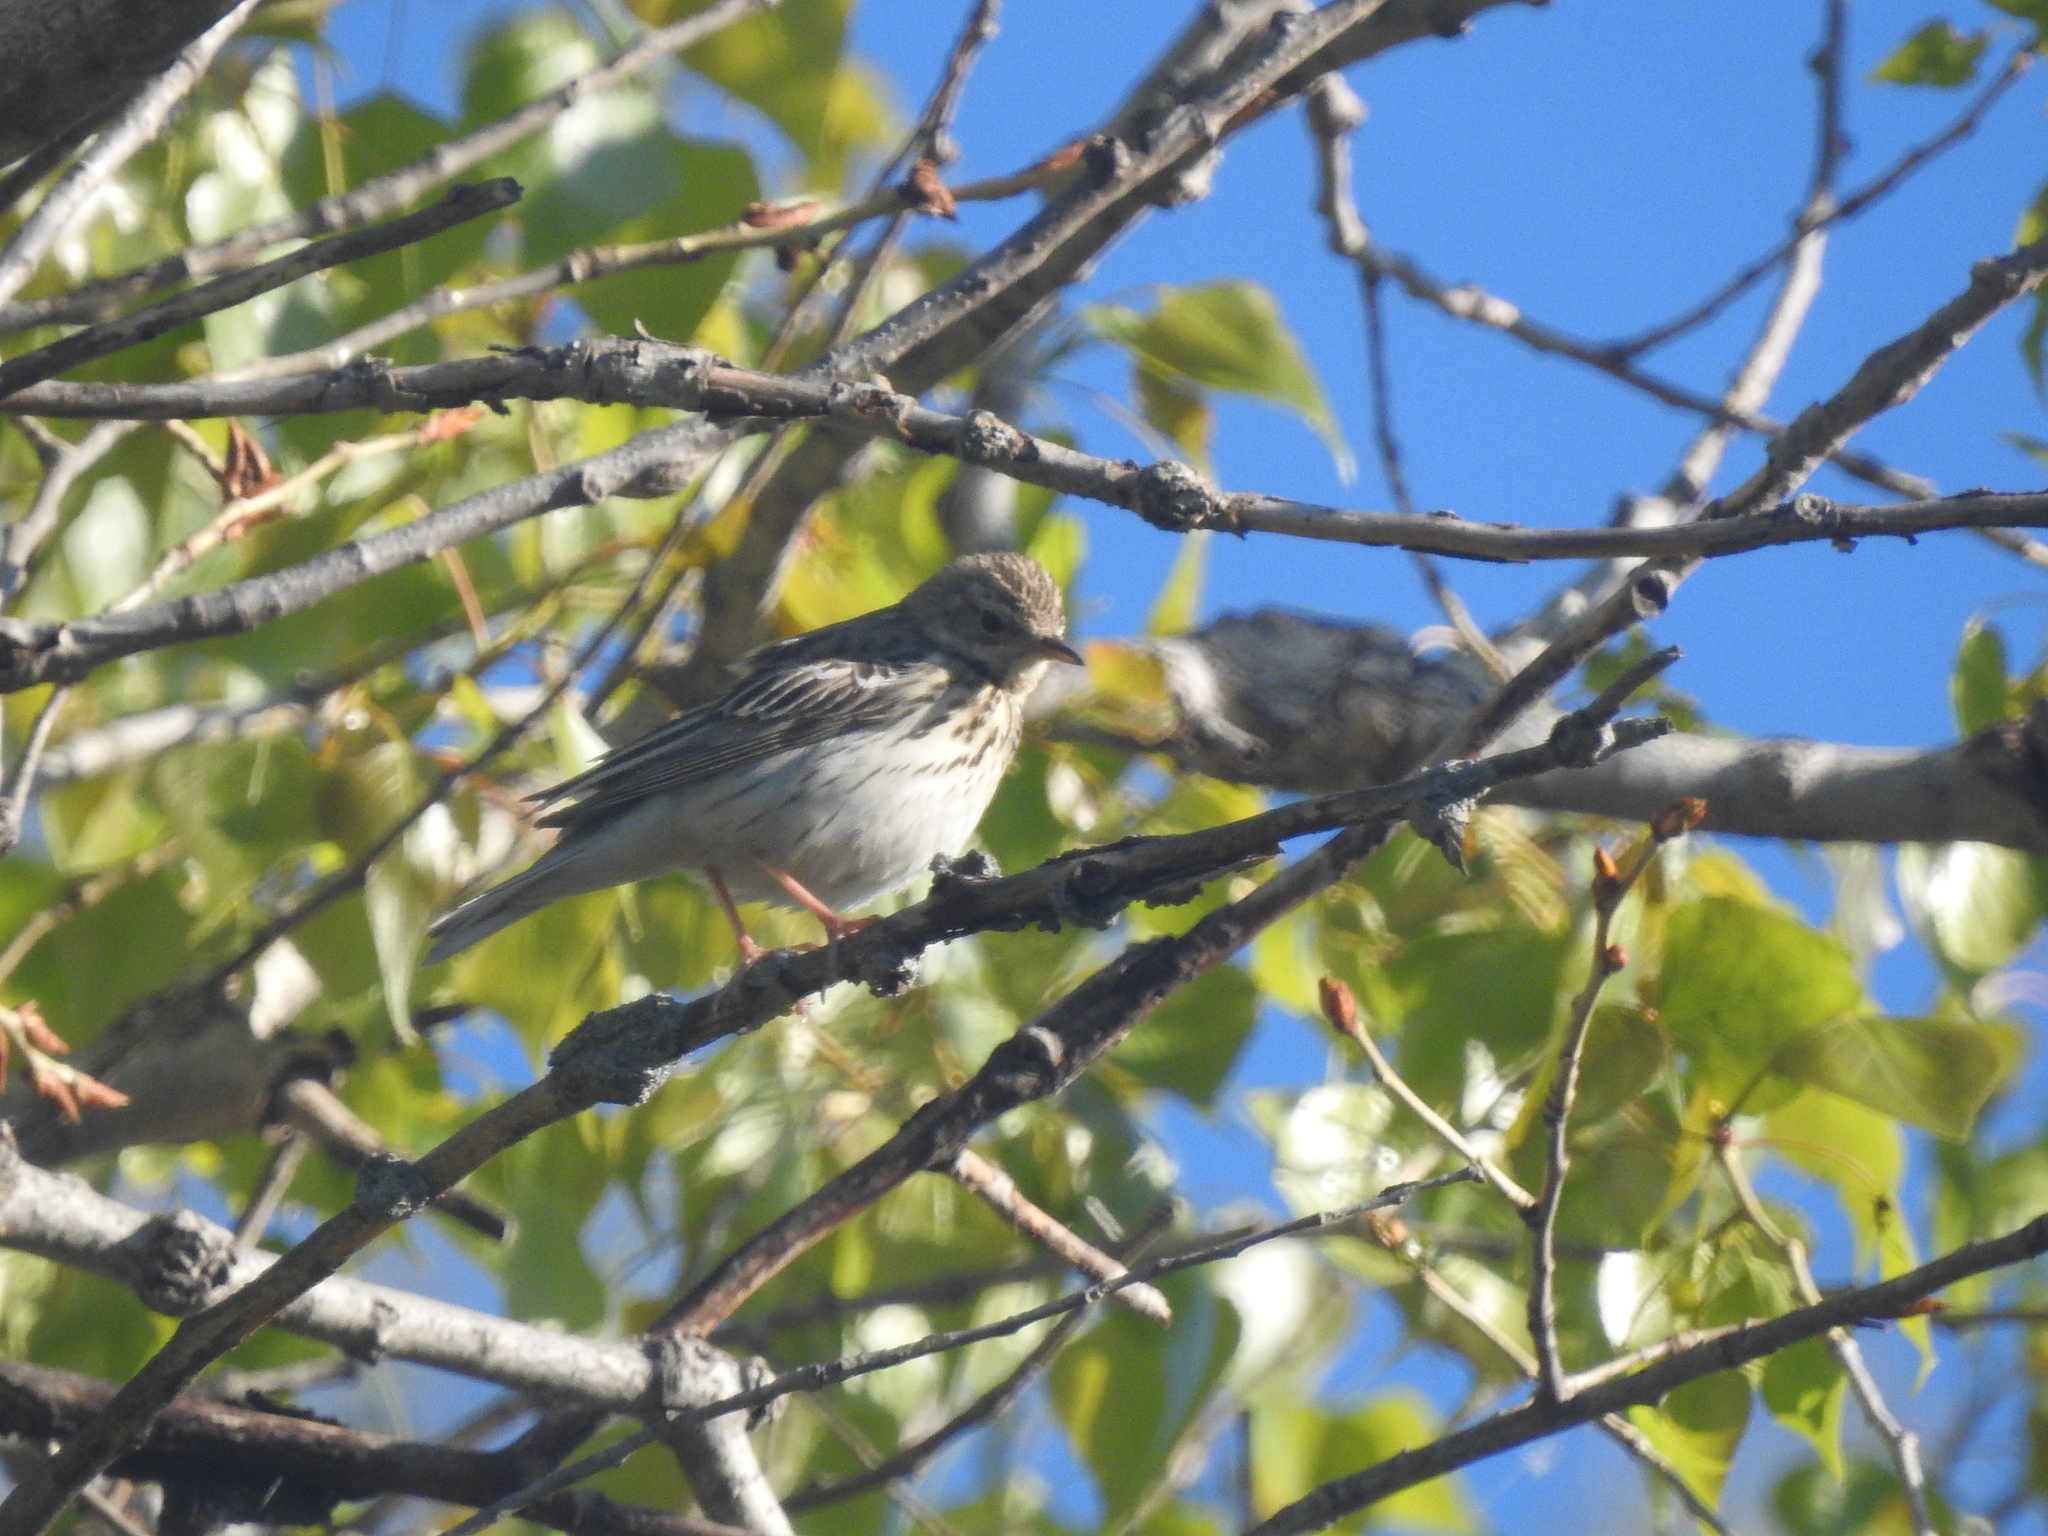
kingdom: Animalia
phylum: Chordata
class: Aves
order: Passeriformes
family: Motacillidae
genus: Anthus
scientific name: Anthus trivialis
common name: Tree pipit
